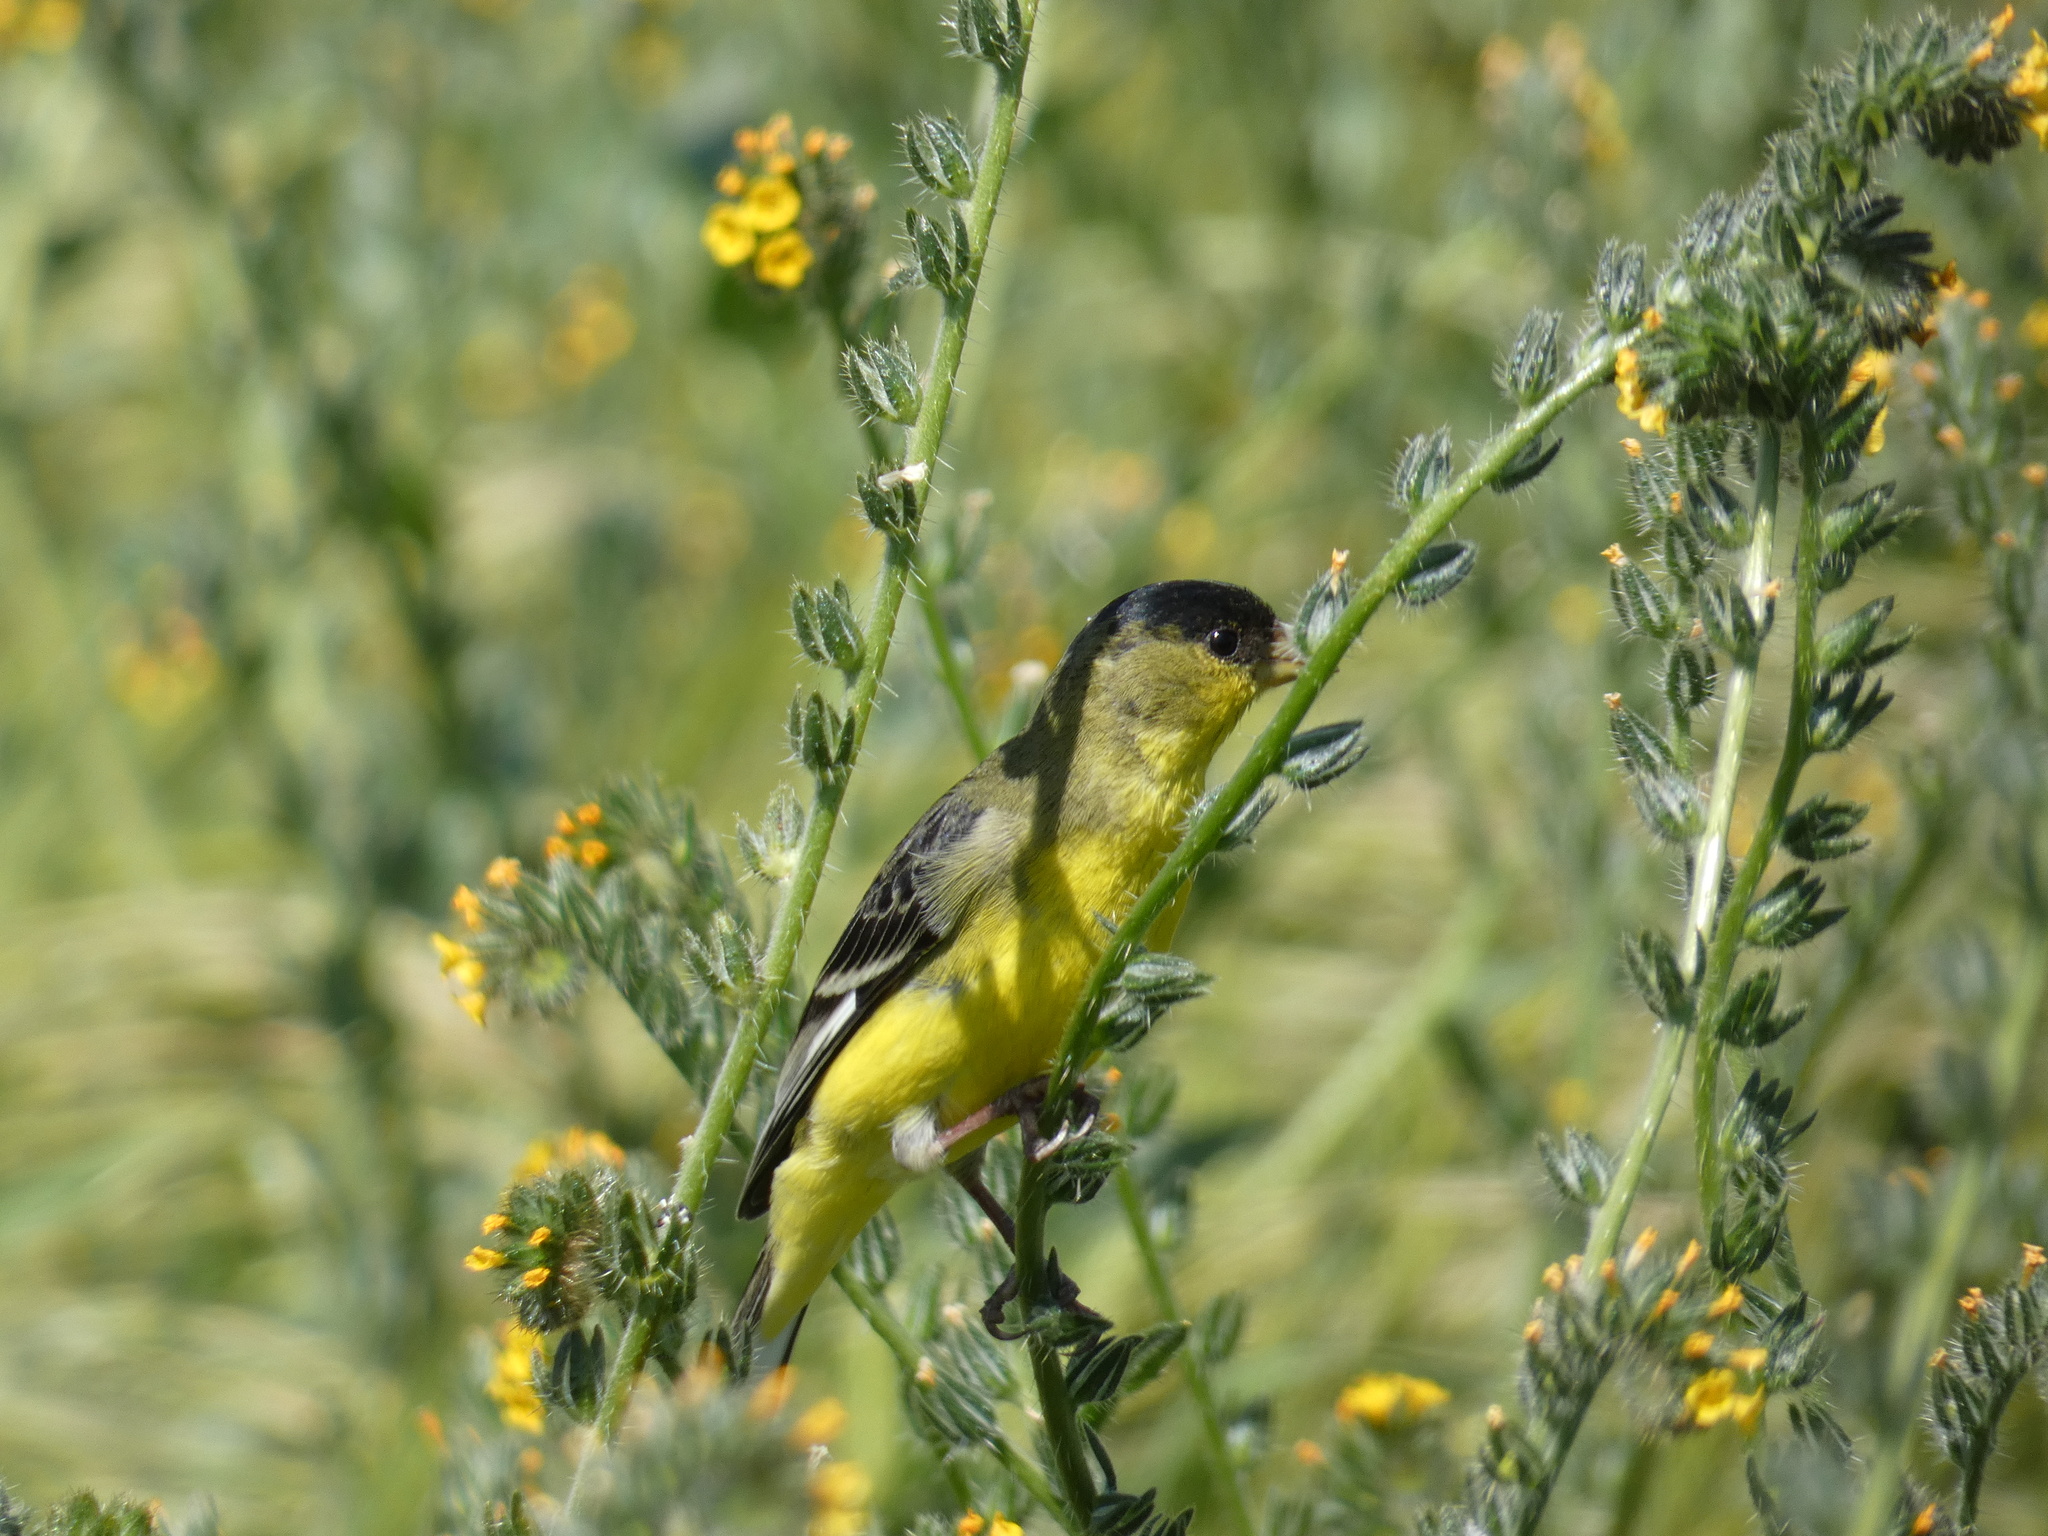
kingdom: Animalia
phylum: Chordata
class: Aves
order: Passeriformes
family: Fringillidae
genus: Spinus
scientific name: Spinus psaltria
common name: Lesser goldfinch
